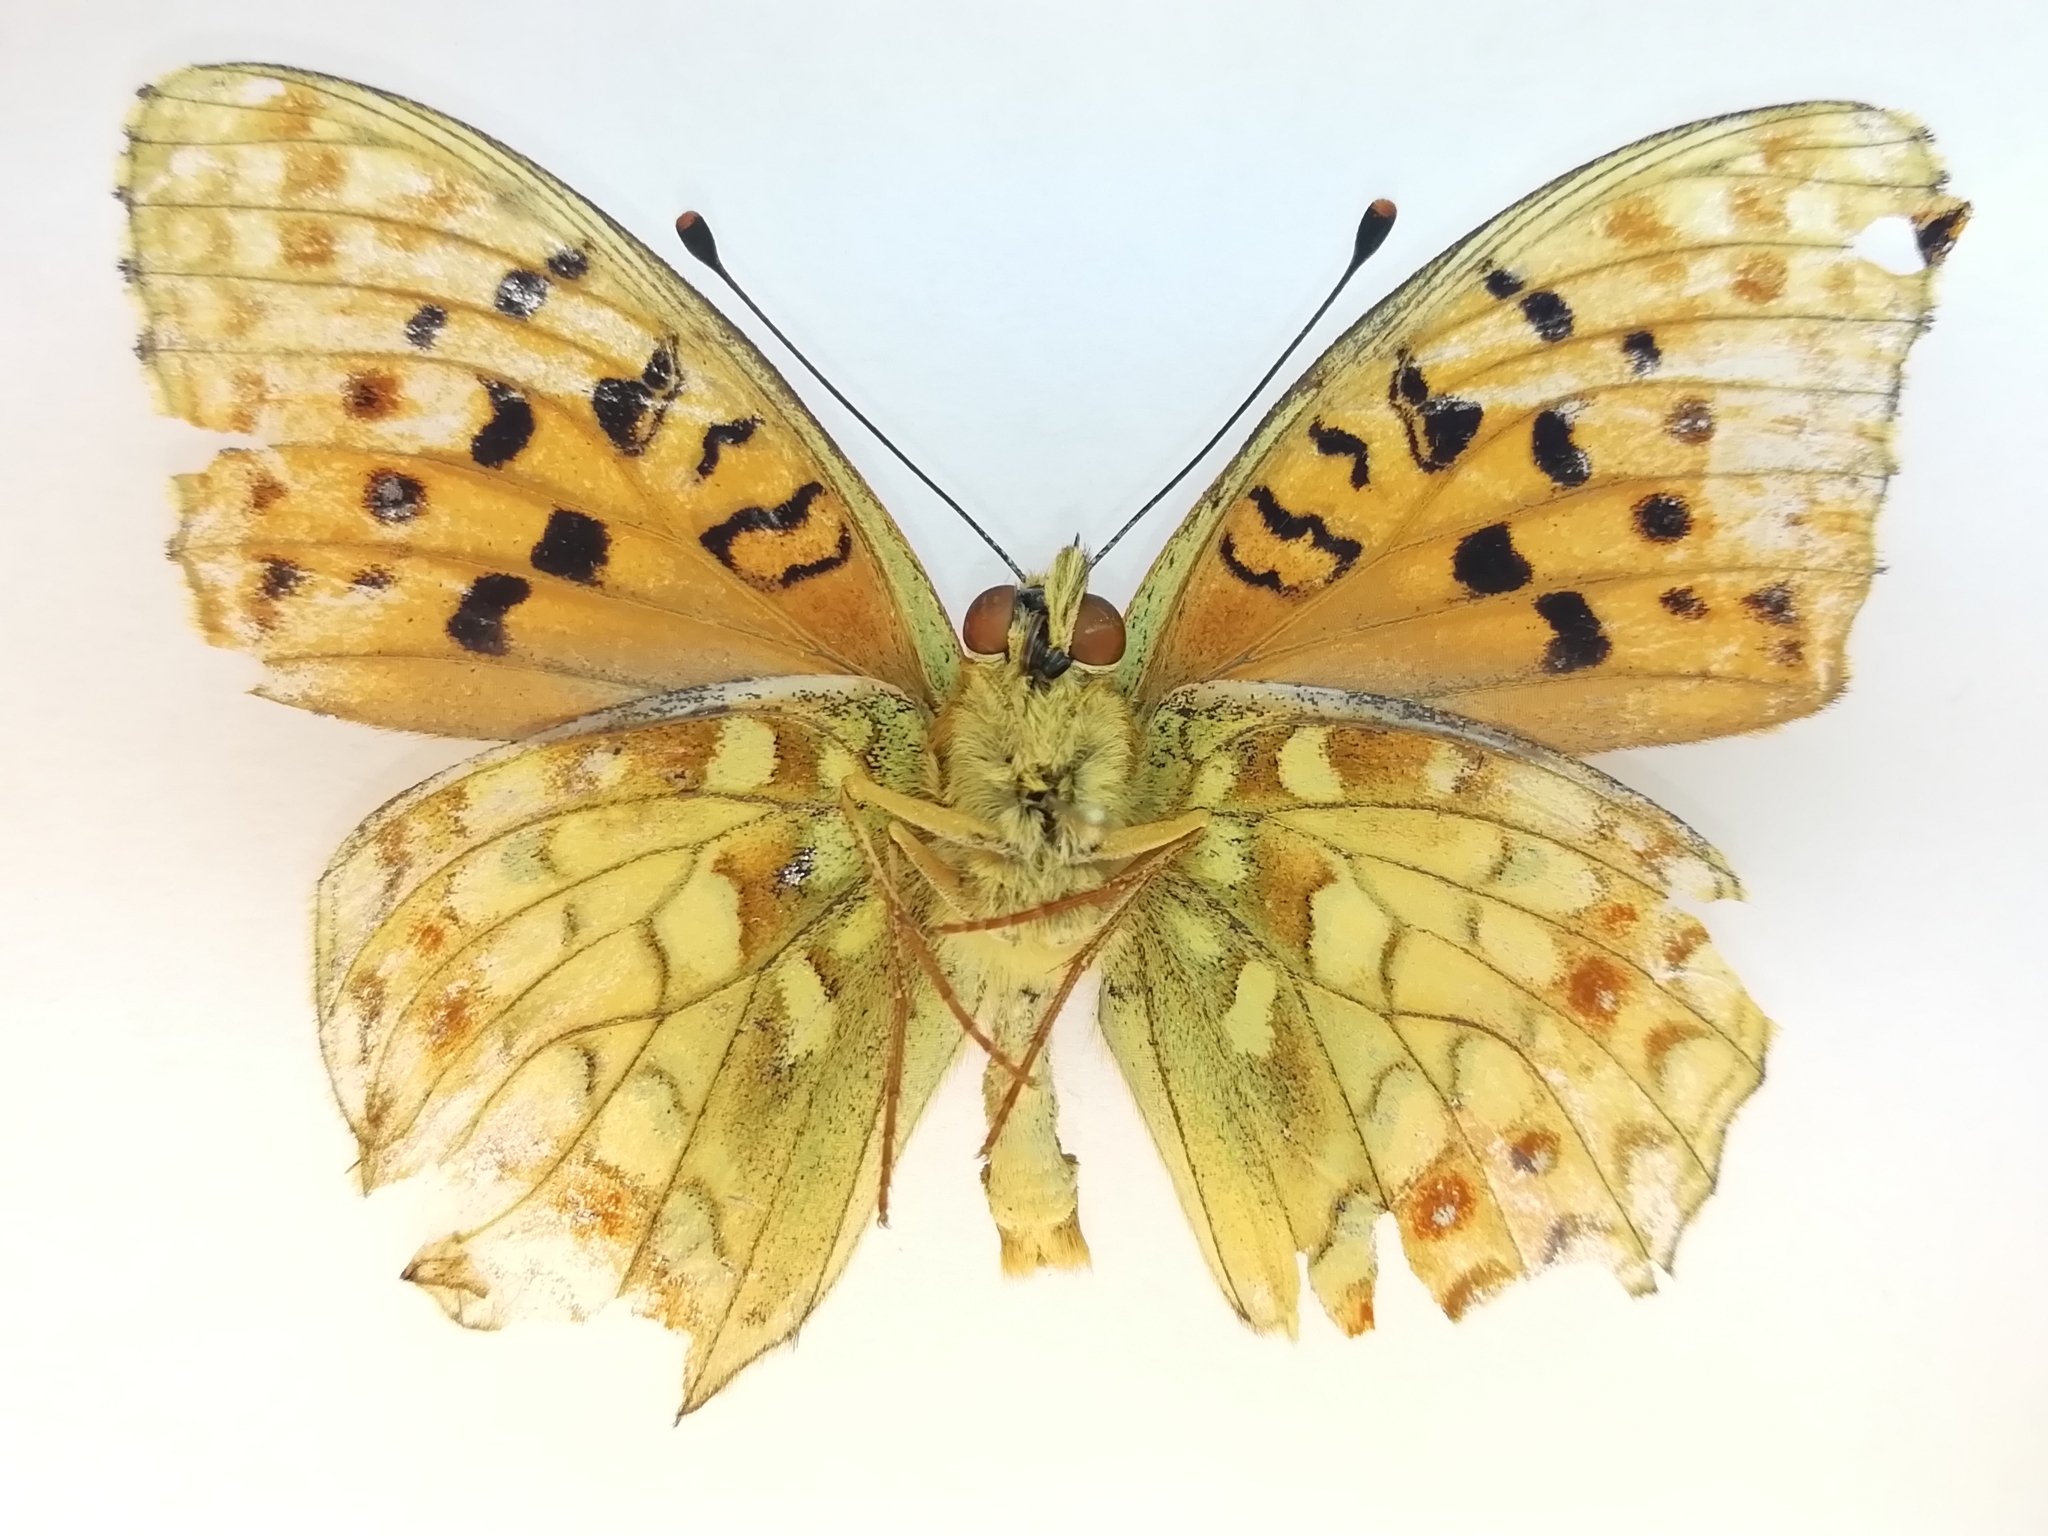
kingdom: Animalia
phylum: Arthropoda
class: Insecta
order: Lepidoptera
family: Nymphalidae
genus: Fabriciana
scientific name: Fabriciana adippe
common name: High brown fritillary
